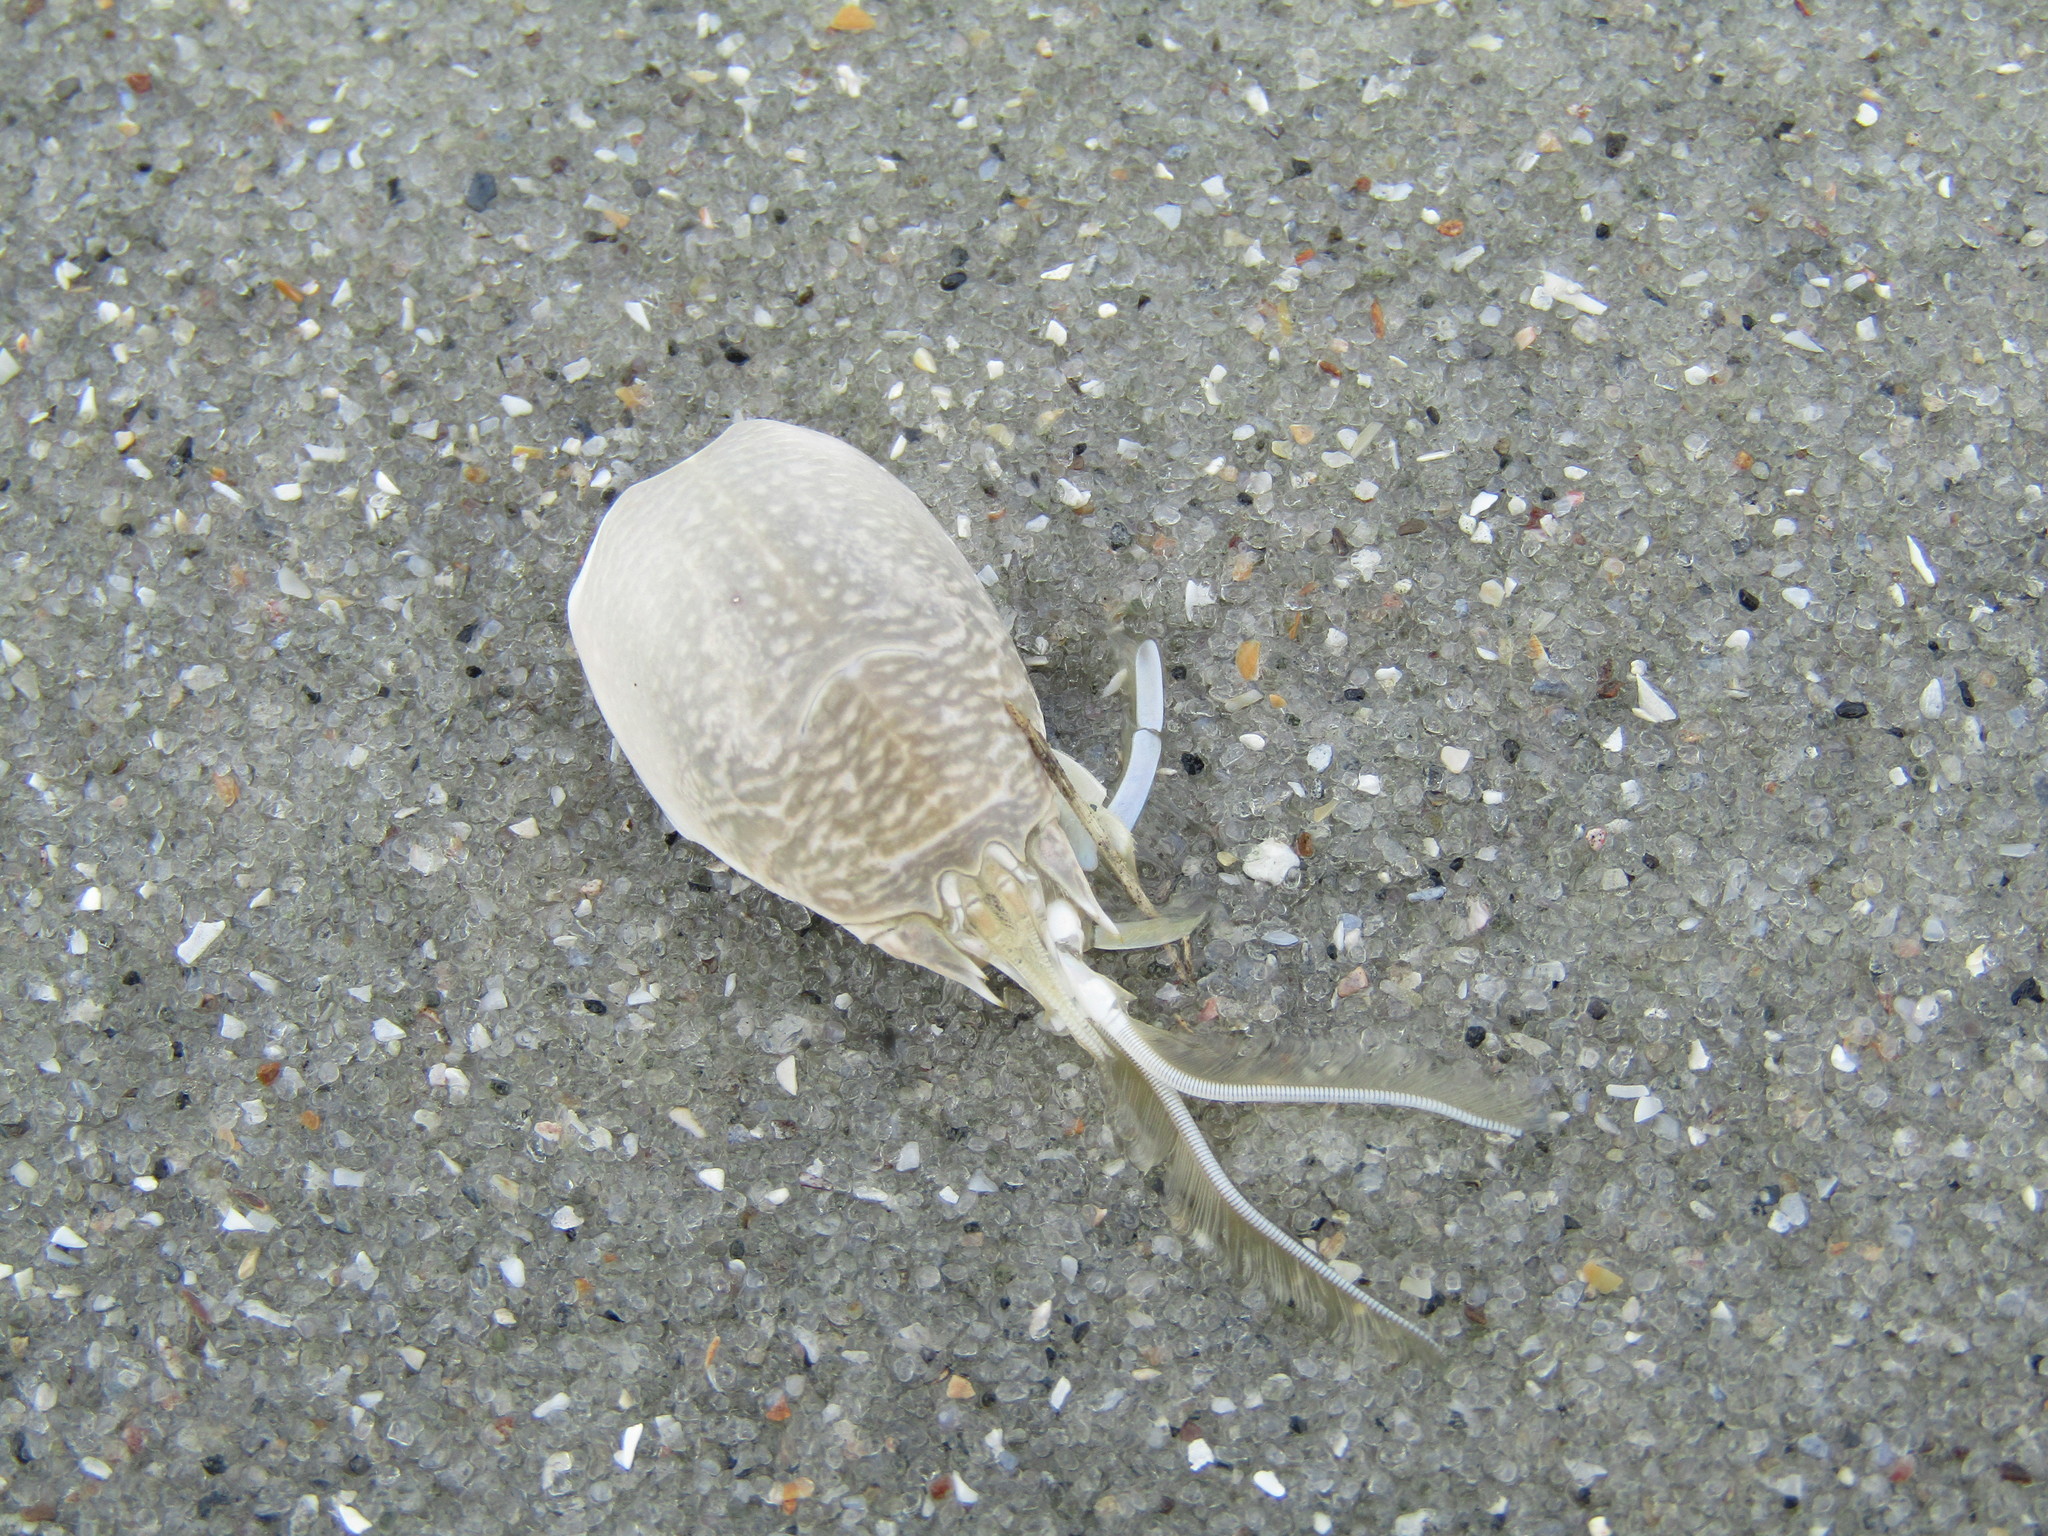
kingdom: Animalia
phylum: Arthropoda
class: Malacostraca
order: Decapoda
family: Hippidae
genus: Emerita
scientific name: Emerita talpoida
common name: Atlantic sand crab
